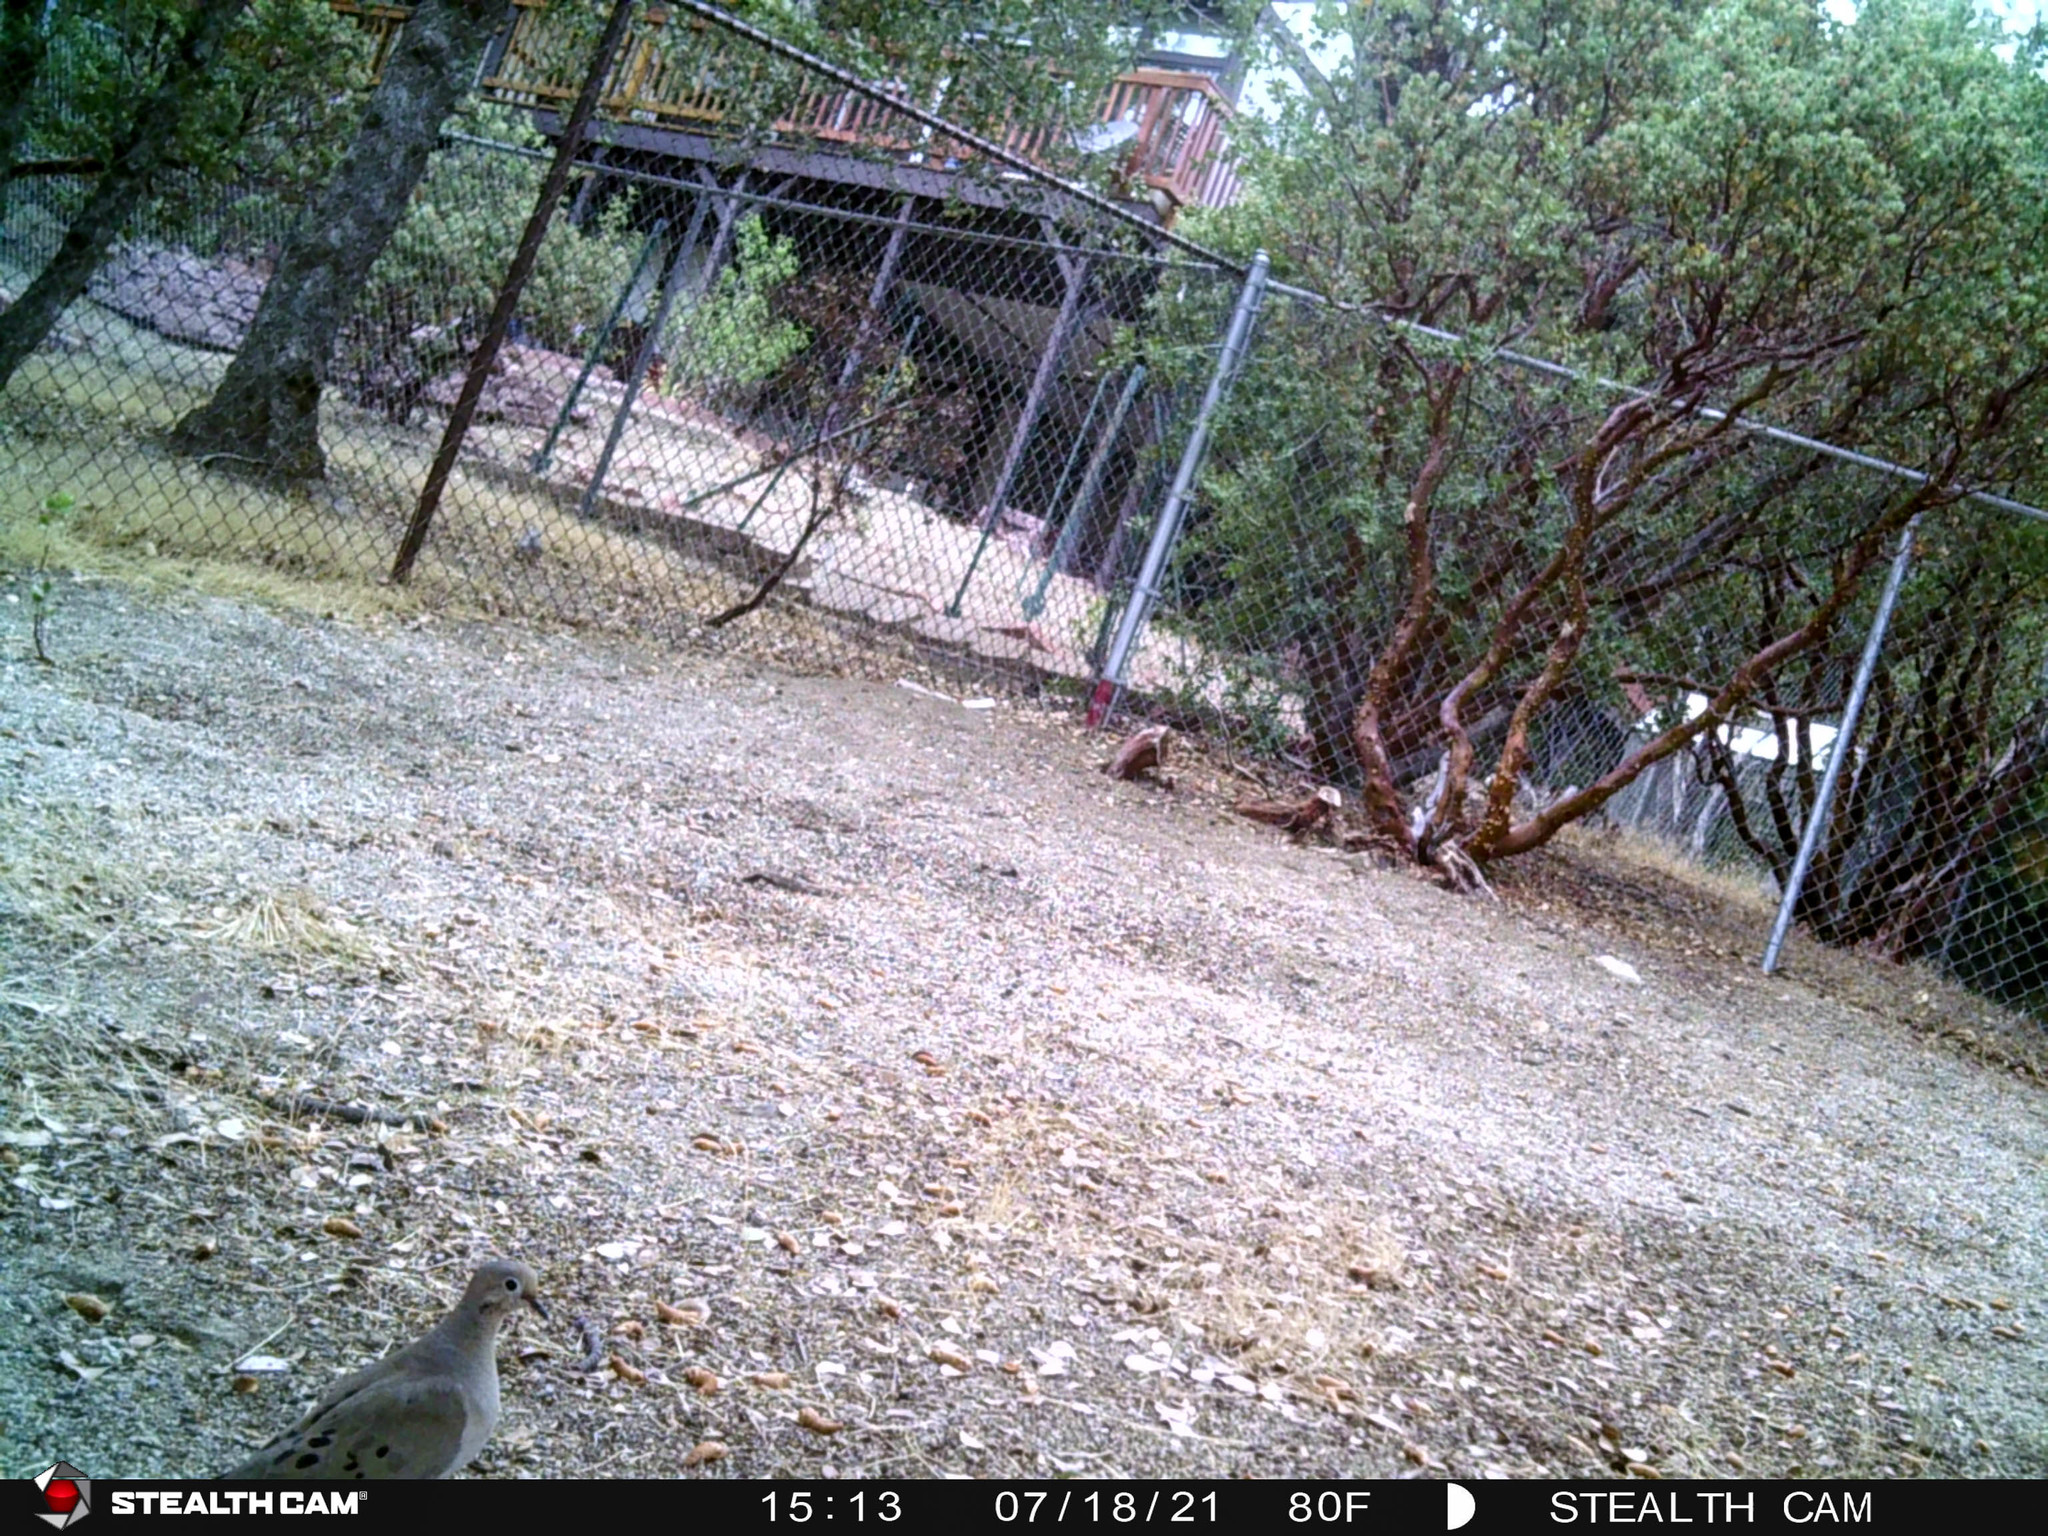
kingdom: Animalia
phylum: Chordata
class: Aves
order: Columbiformes
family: Columbidae
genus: Zenaida
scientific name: Zenaida macroura
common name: Mourning dove
